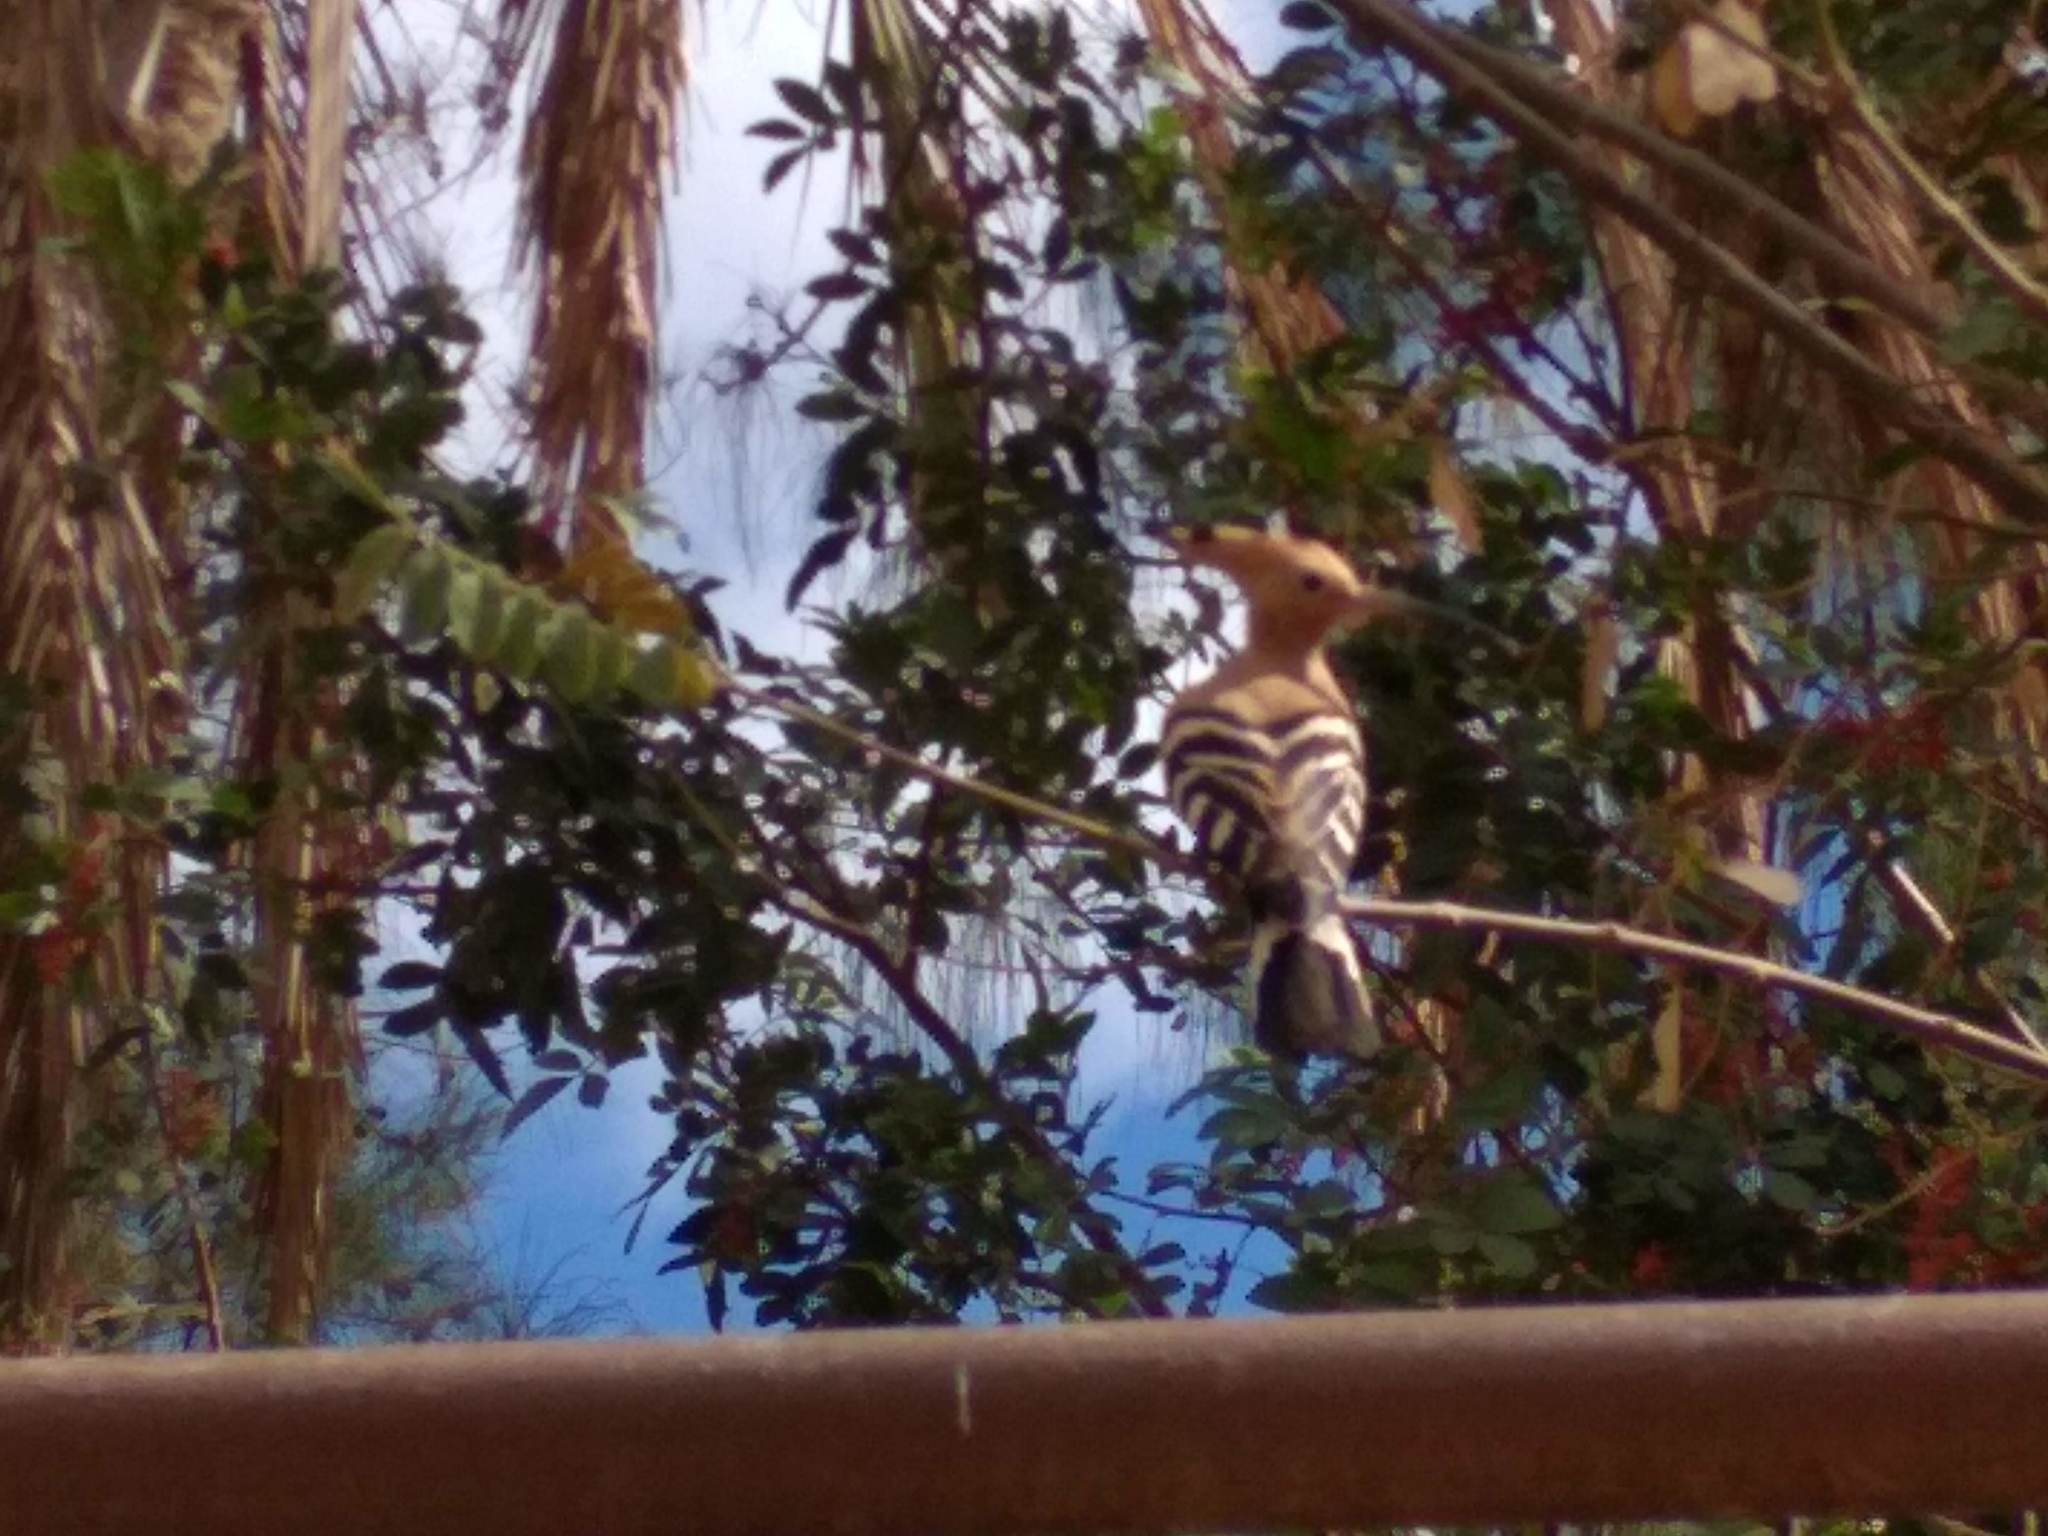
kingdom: Animalia
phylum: Chordata
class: Aves
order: Bucerotiformes
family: Upupidae
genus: Upupa
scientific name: Upupa epops
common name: Eurasian hoopoe
